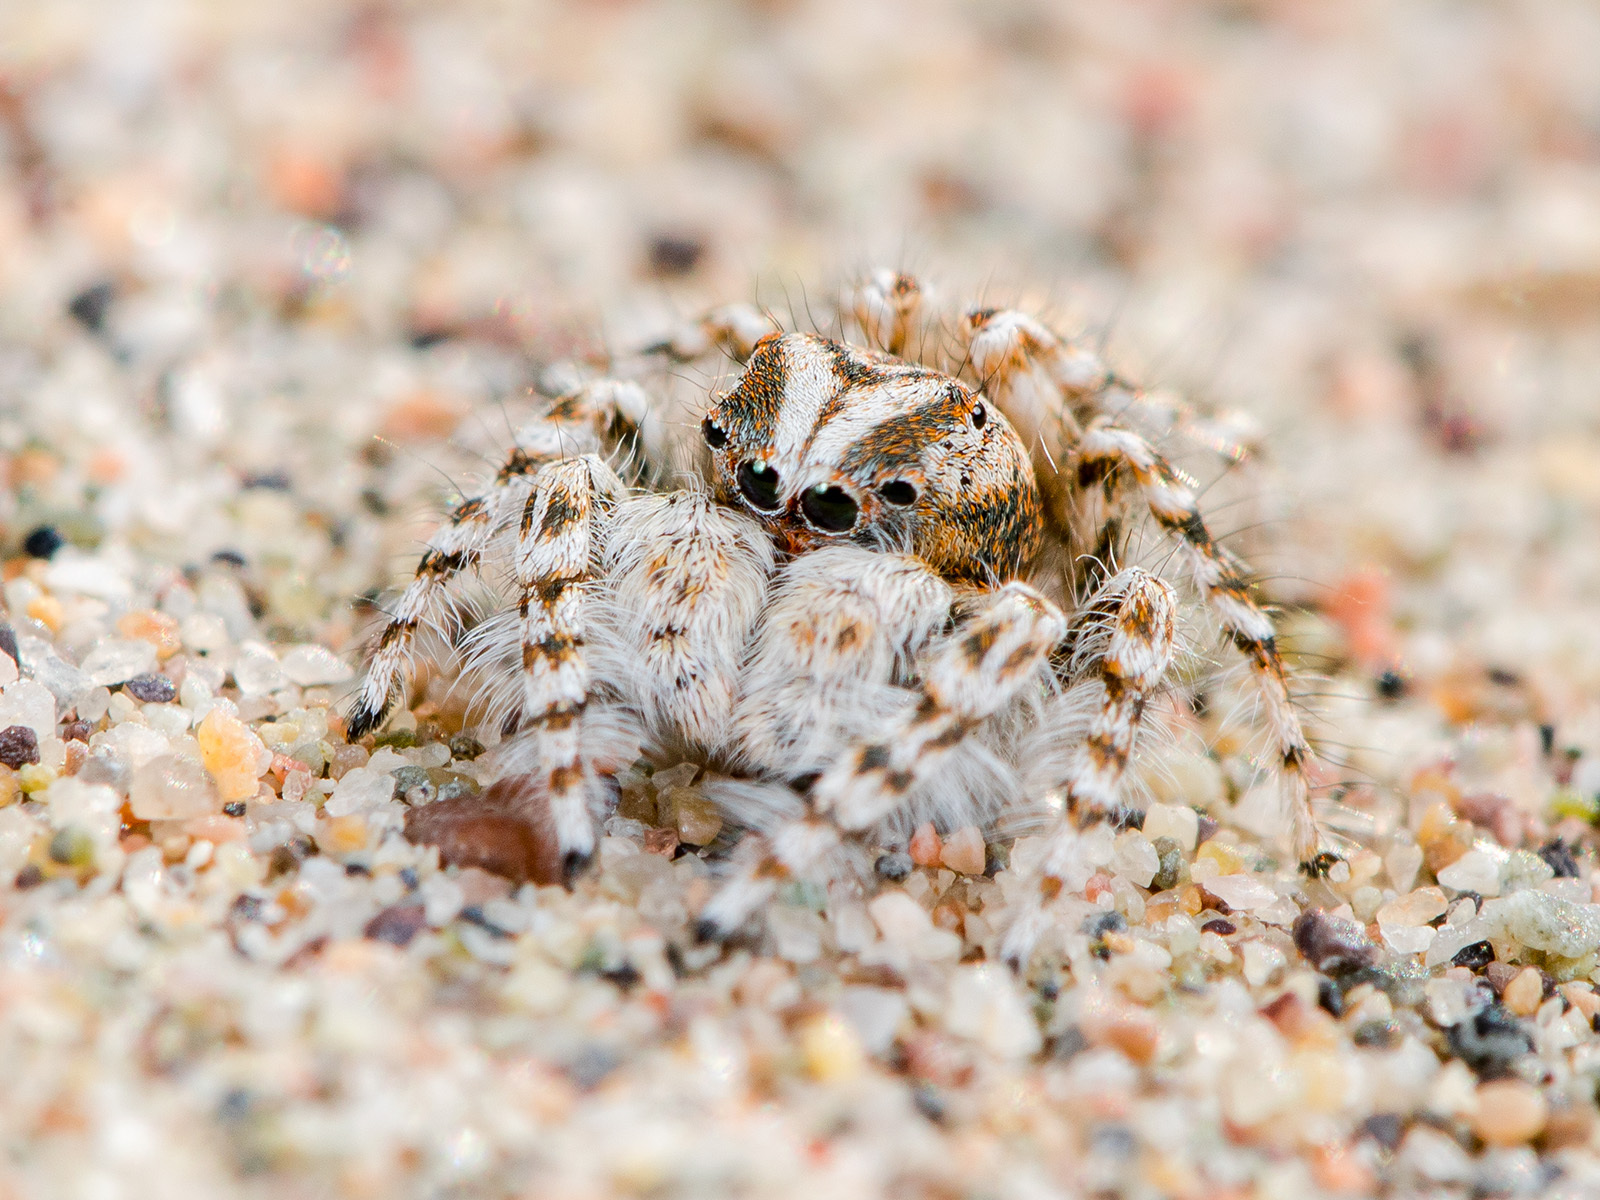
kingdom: Animalia
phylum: Arthropoda
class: Arachnida
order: Araneae
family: Salticidae
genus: Yllenus
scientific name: Yllenus uiguricus
